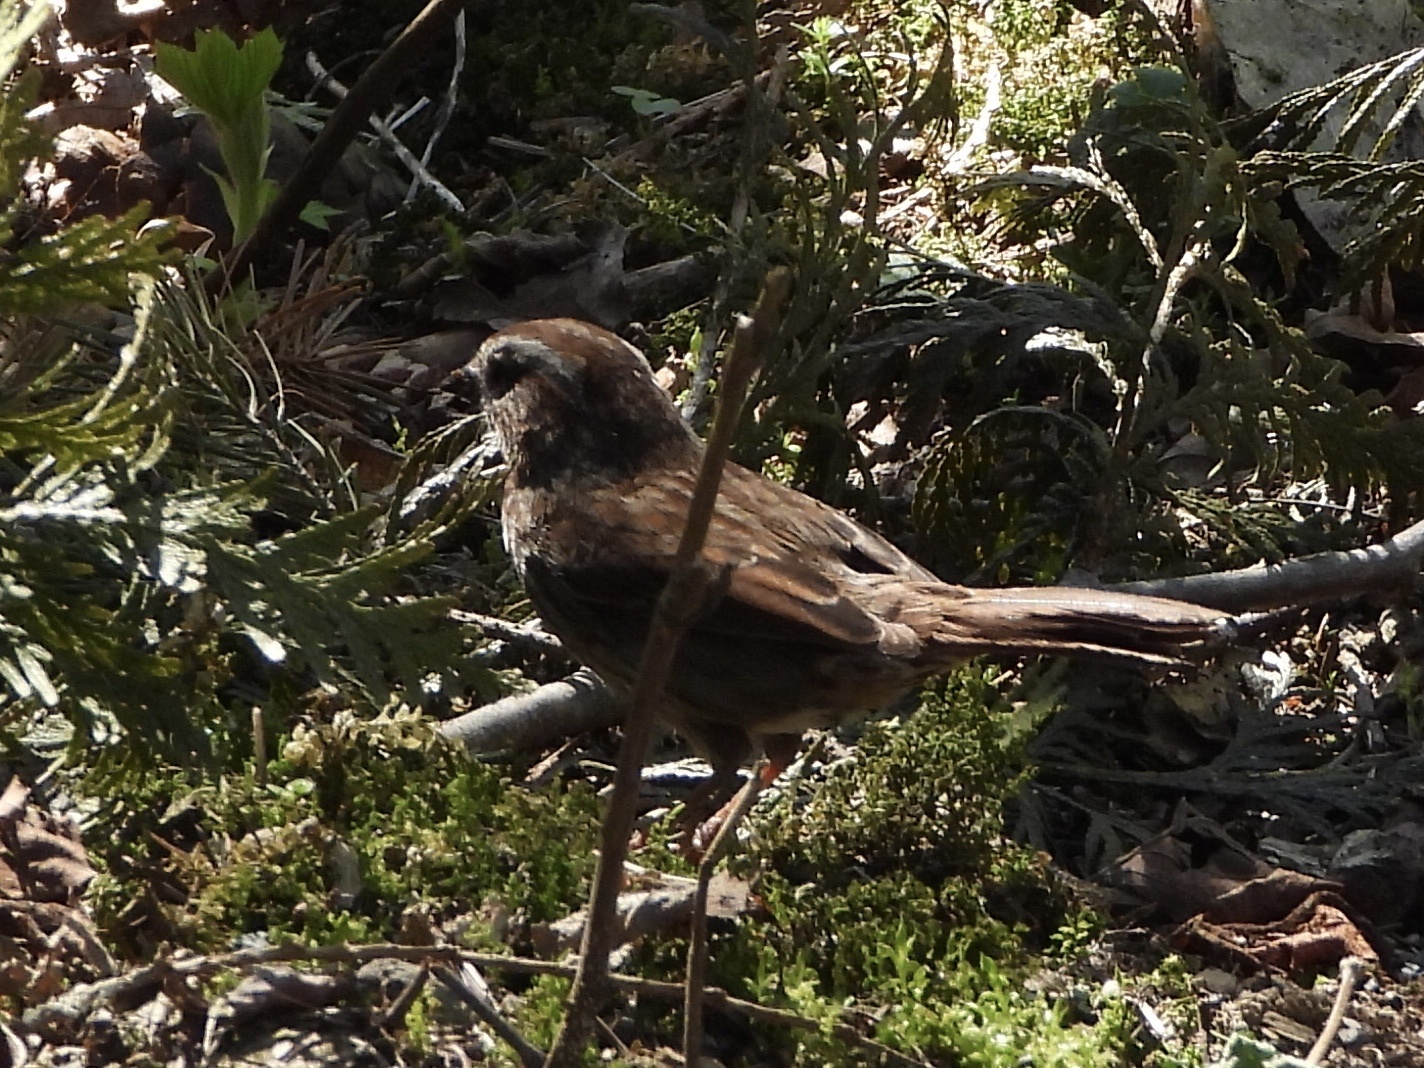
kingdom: Animalia
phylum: Chordata
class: Aves
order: Passeriformes
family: Passerellidae
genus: Melospiza
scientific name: Melospiza melodia
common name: Song sparrow
